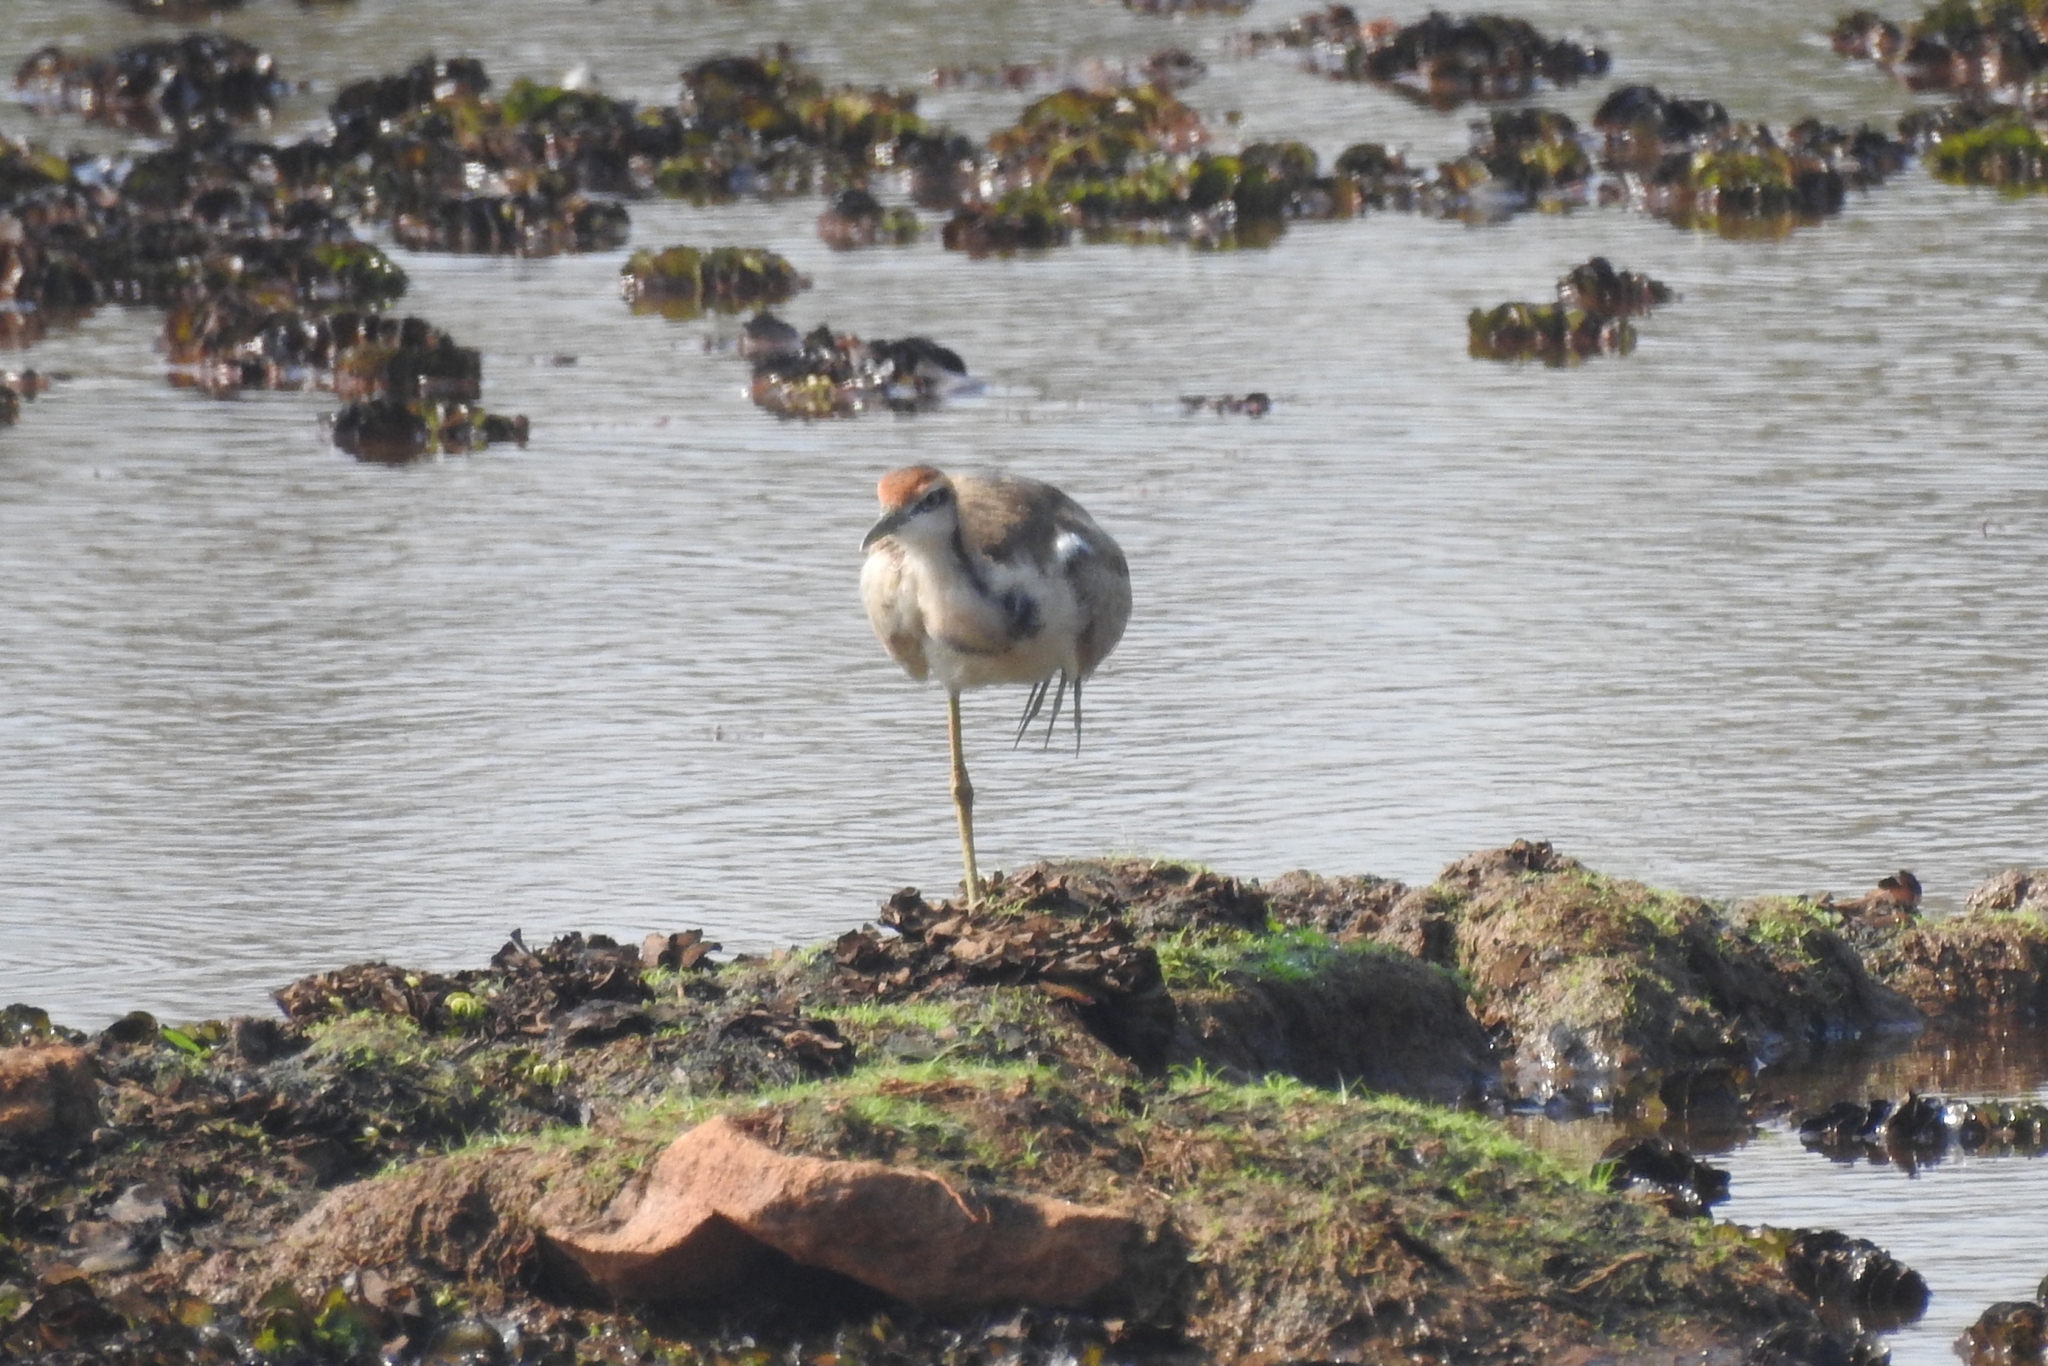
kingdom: Animalia
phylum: Chordata
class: Aves
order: Charadriiformes
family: Jacanidae
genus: Hydrophasianus
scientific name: Hydrophasianus chirurgus
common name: Pheasant-tailed jacana
